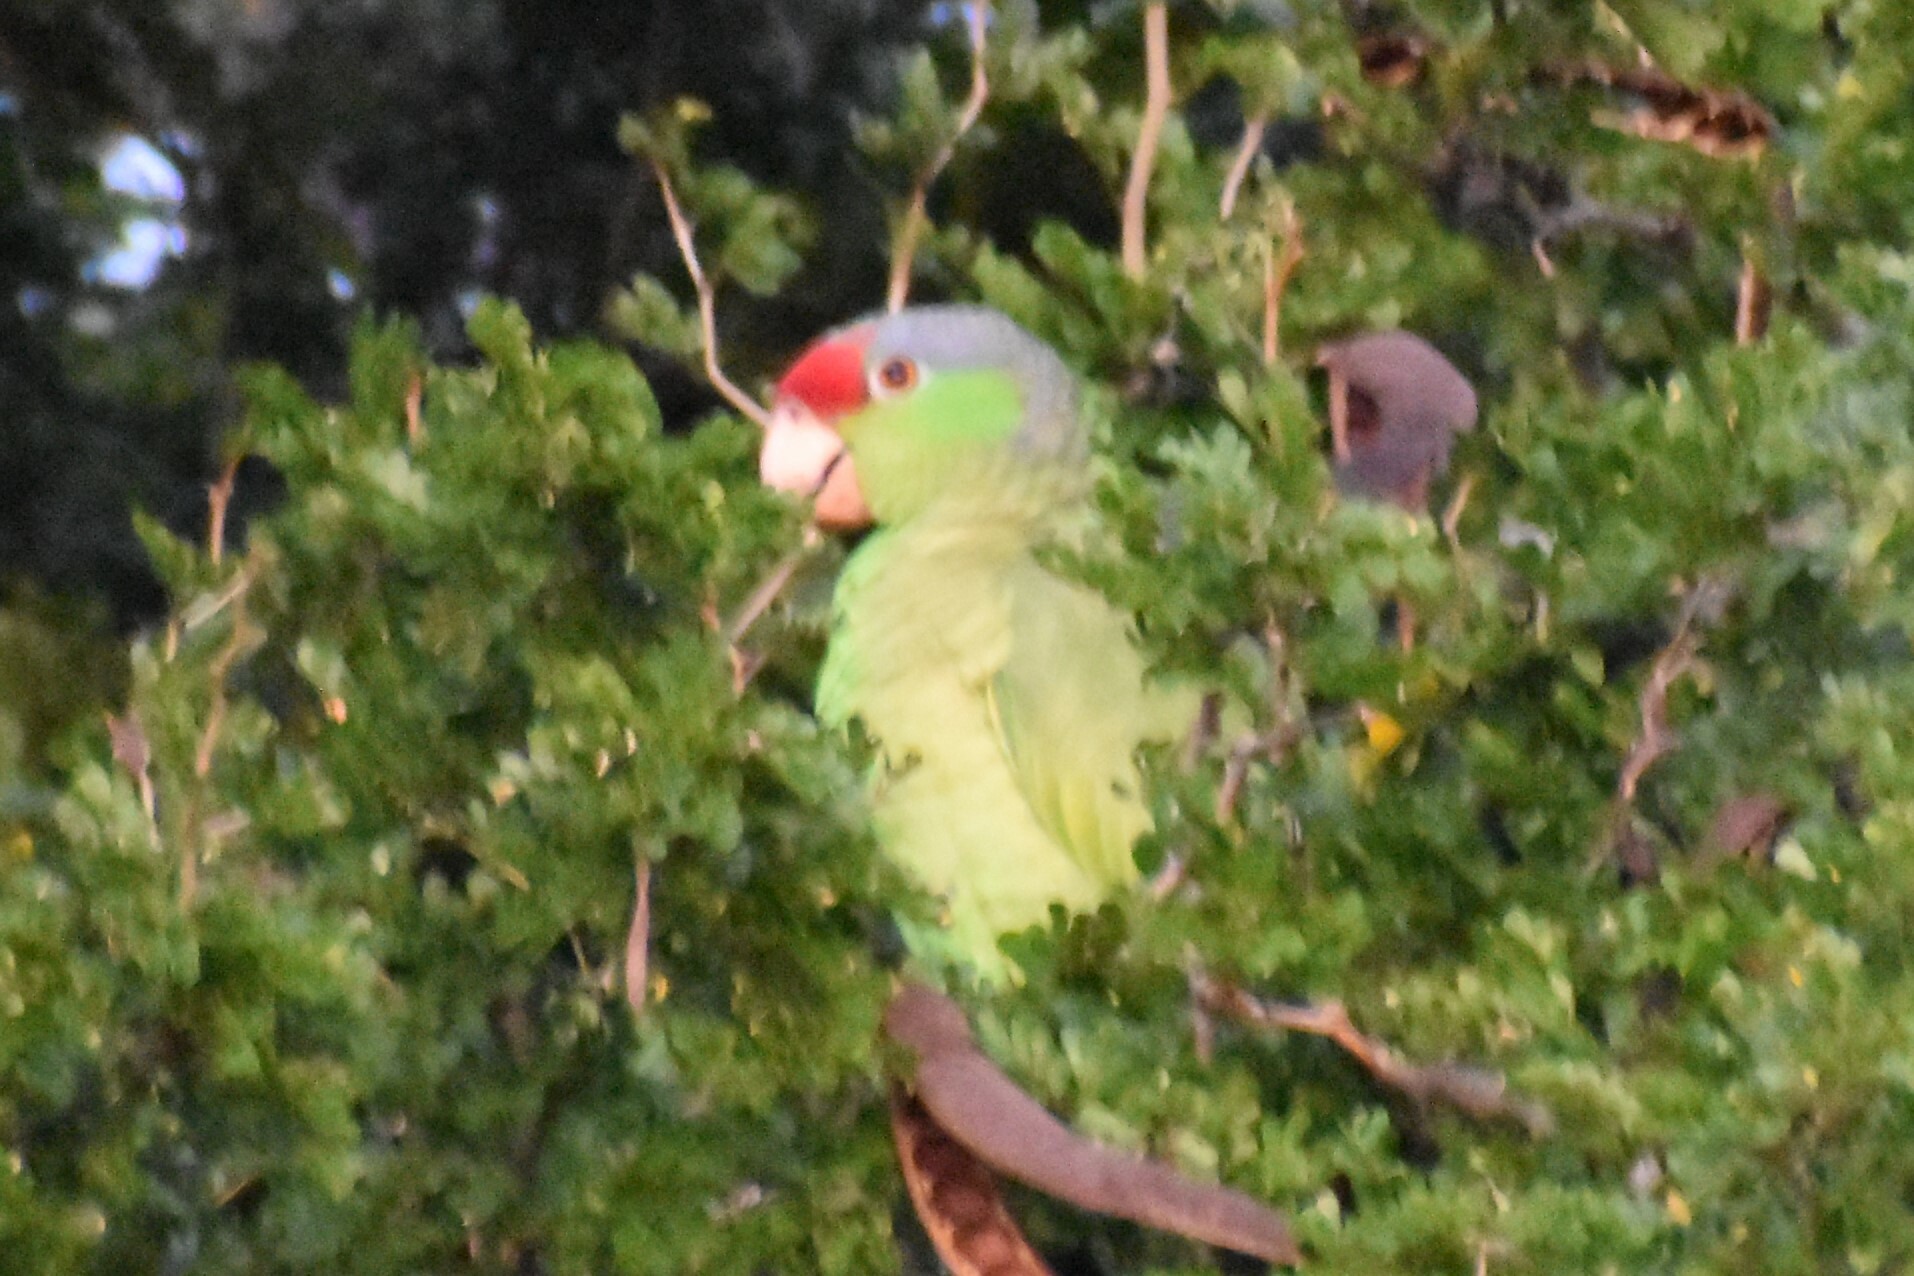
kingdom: Animalia
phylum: Chordata
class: Aves
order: Psittaciformes
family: Psittacidae
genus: Amazona
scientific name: Amazona finschi
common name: Lilac-crowned amazon
